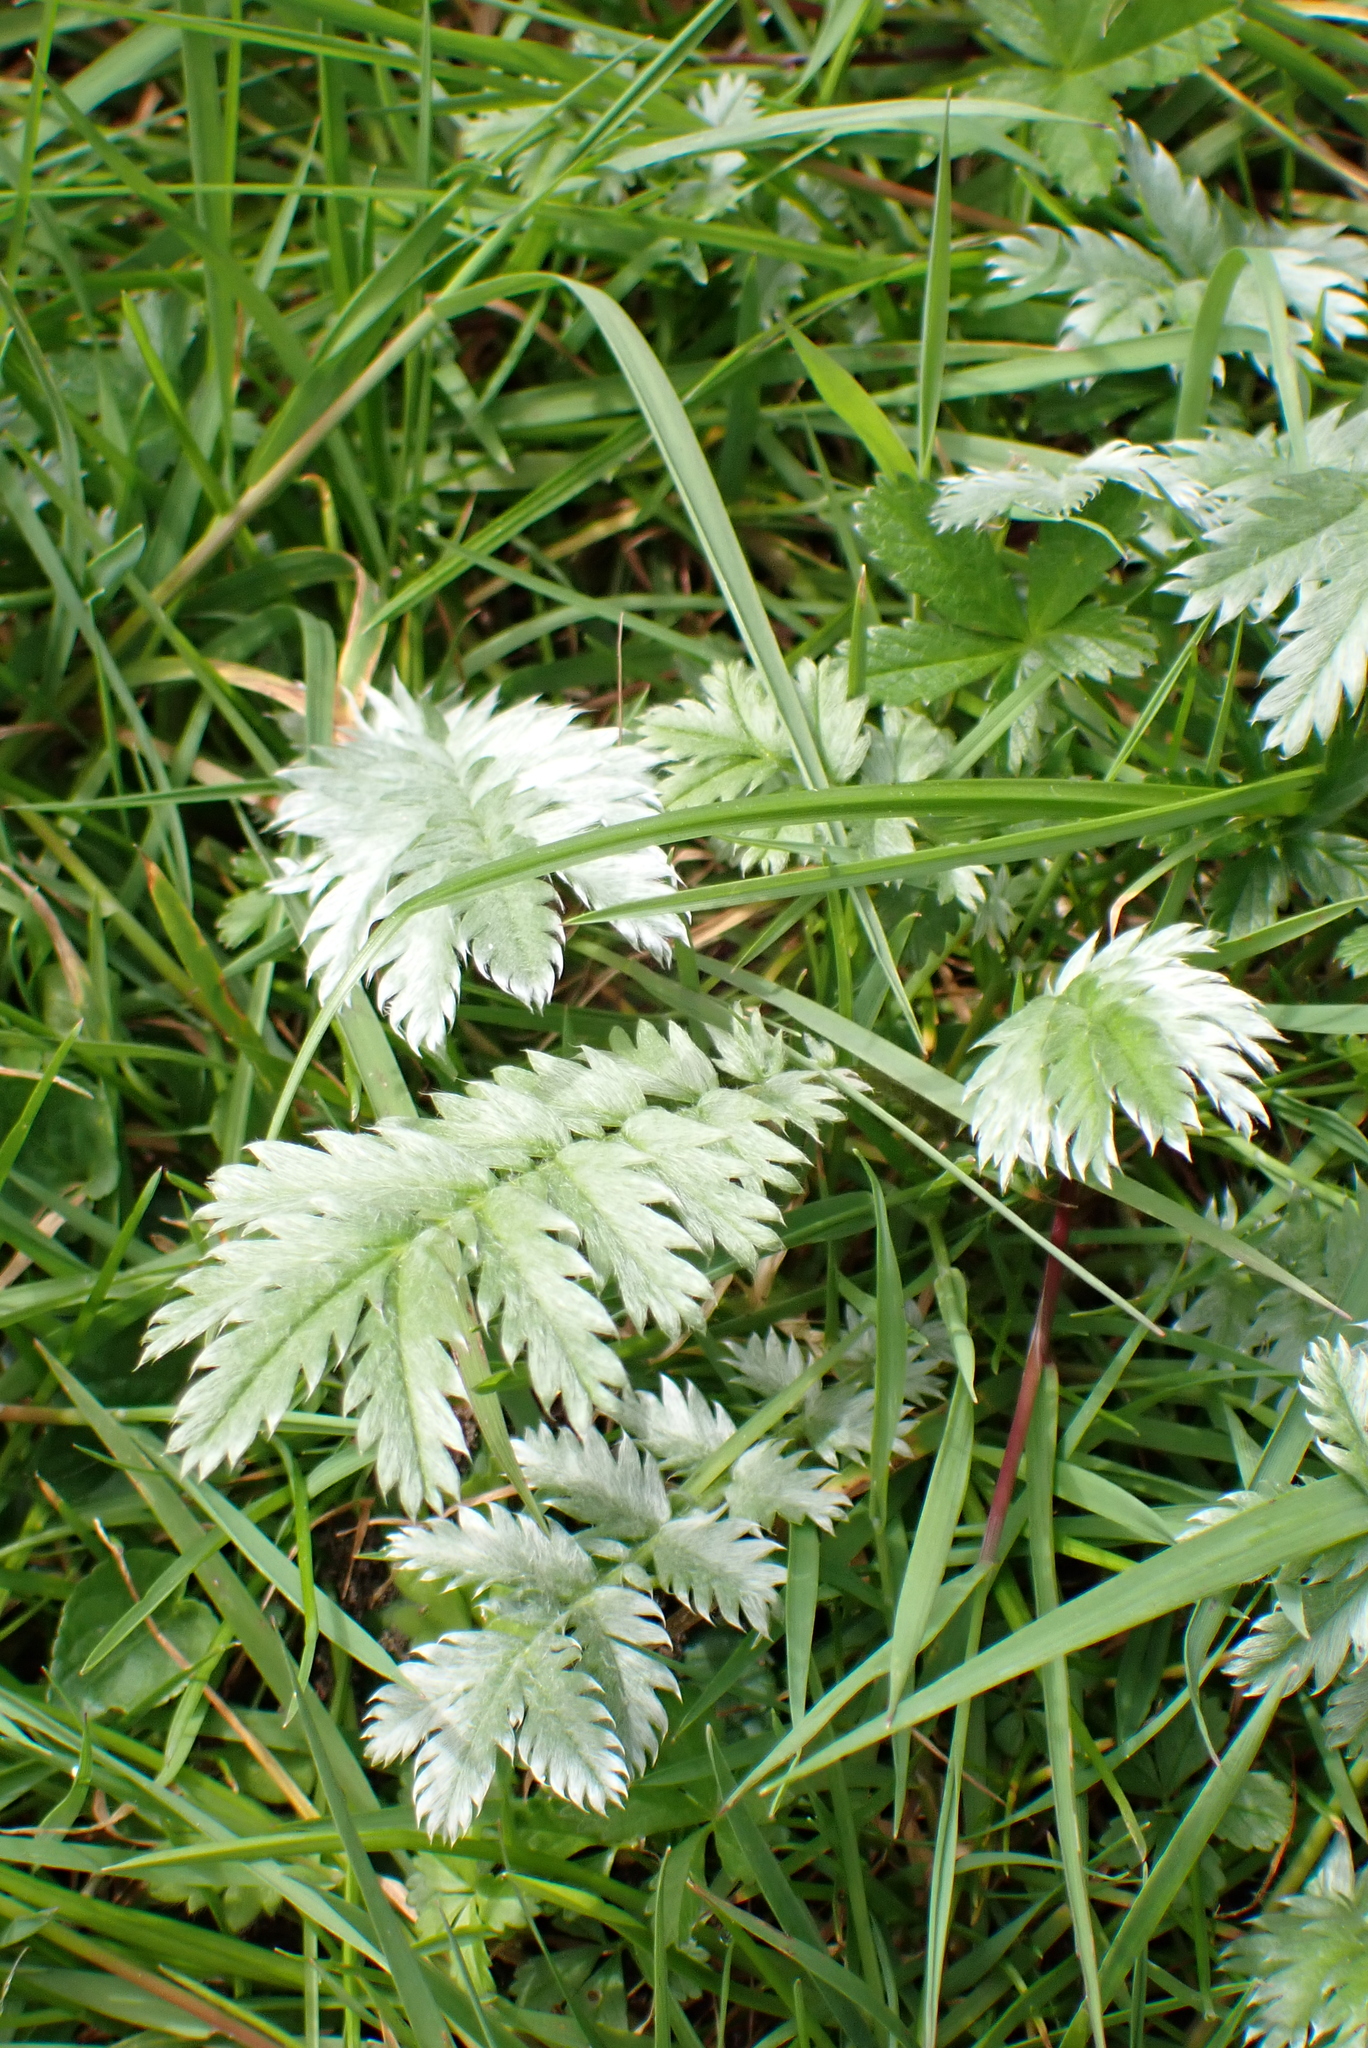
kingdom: Plantae
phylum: Tracheophyta
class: Magnoliopsida
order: Rosales
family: Rosaceae
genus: Argentina
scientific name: Argentina anserina
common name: Common silverweed
